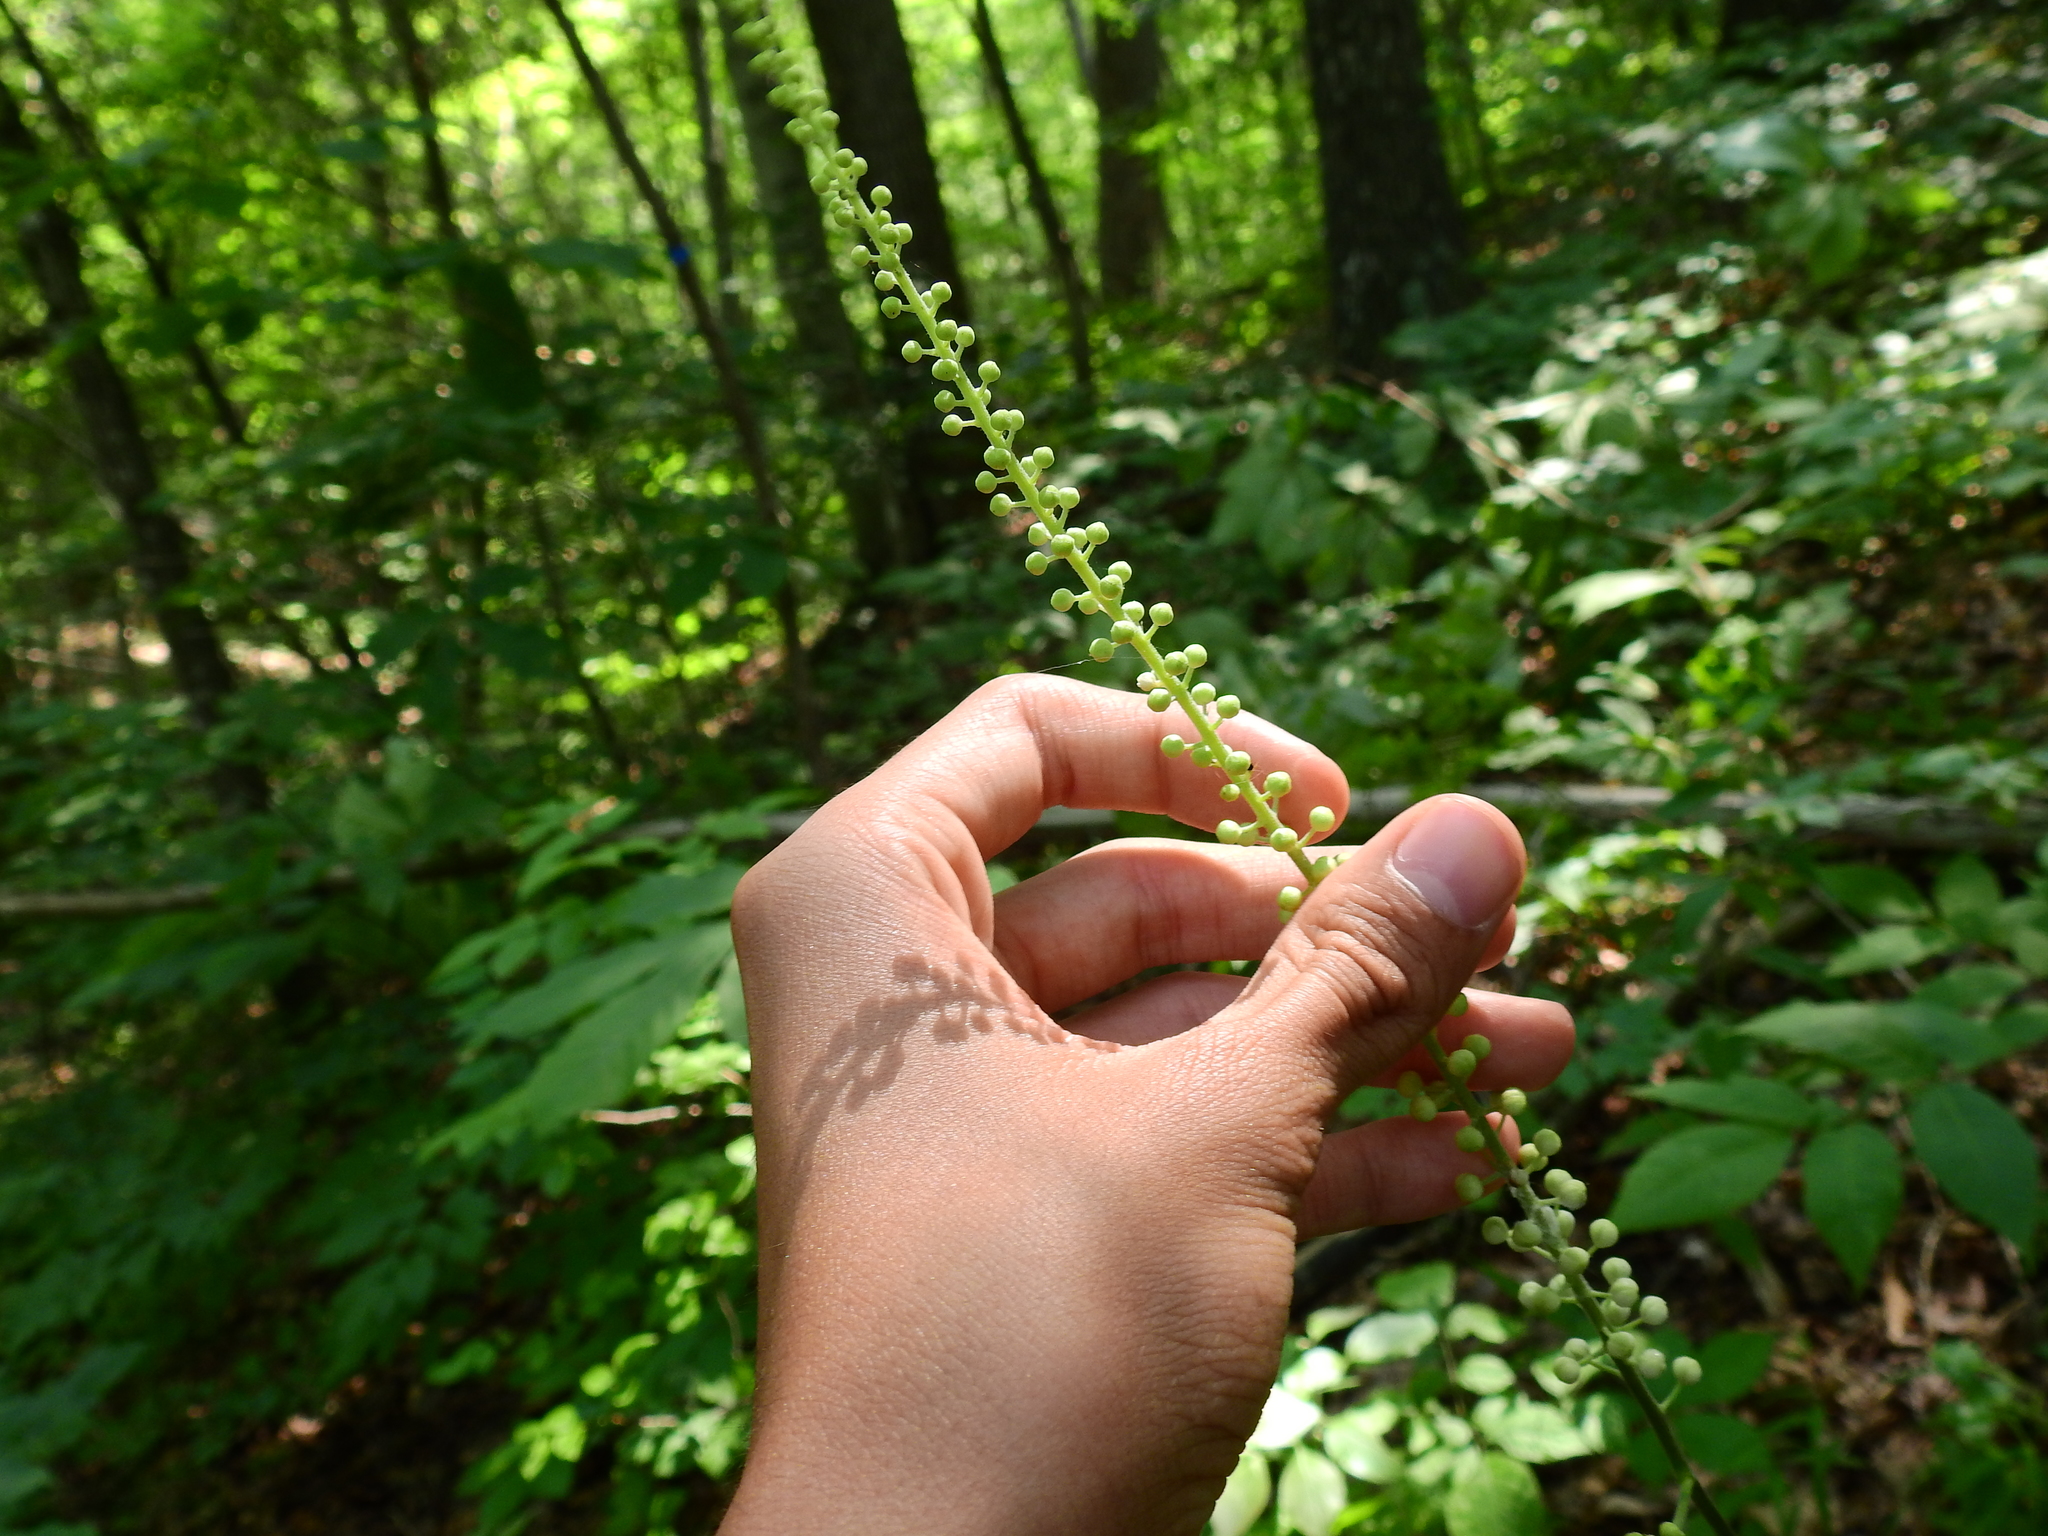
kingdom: Plantae
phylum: Tracheophyta
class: Magnoliopsida
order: Ranunculales
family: Ranunculaceae
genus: Actaea
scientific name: Actaea racemosa
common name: Black cohosh
